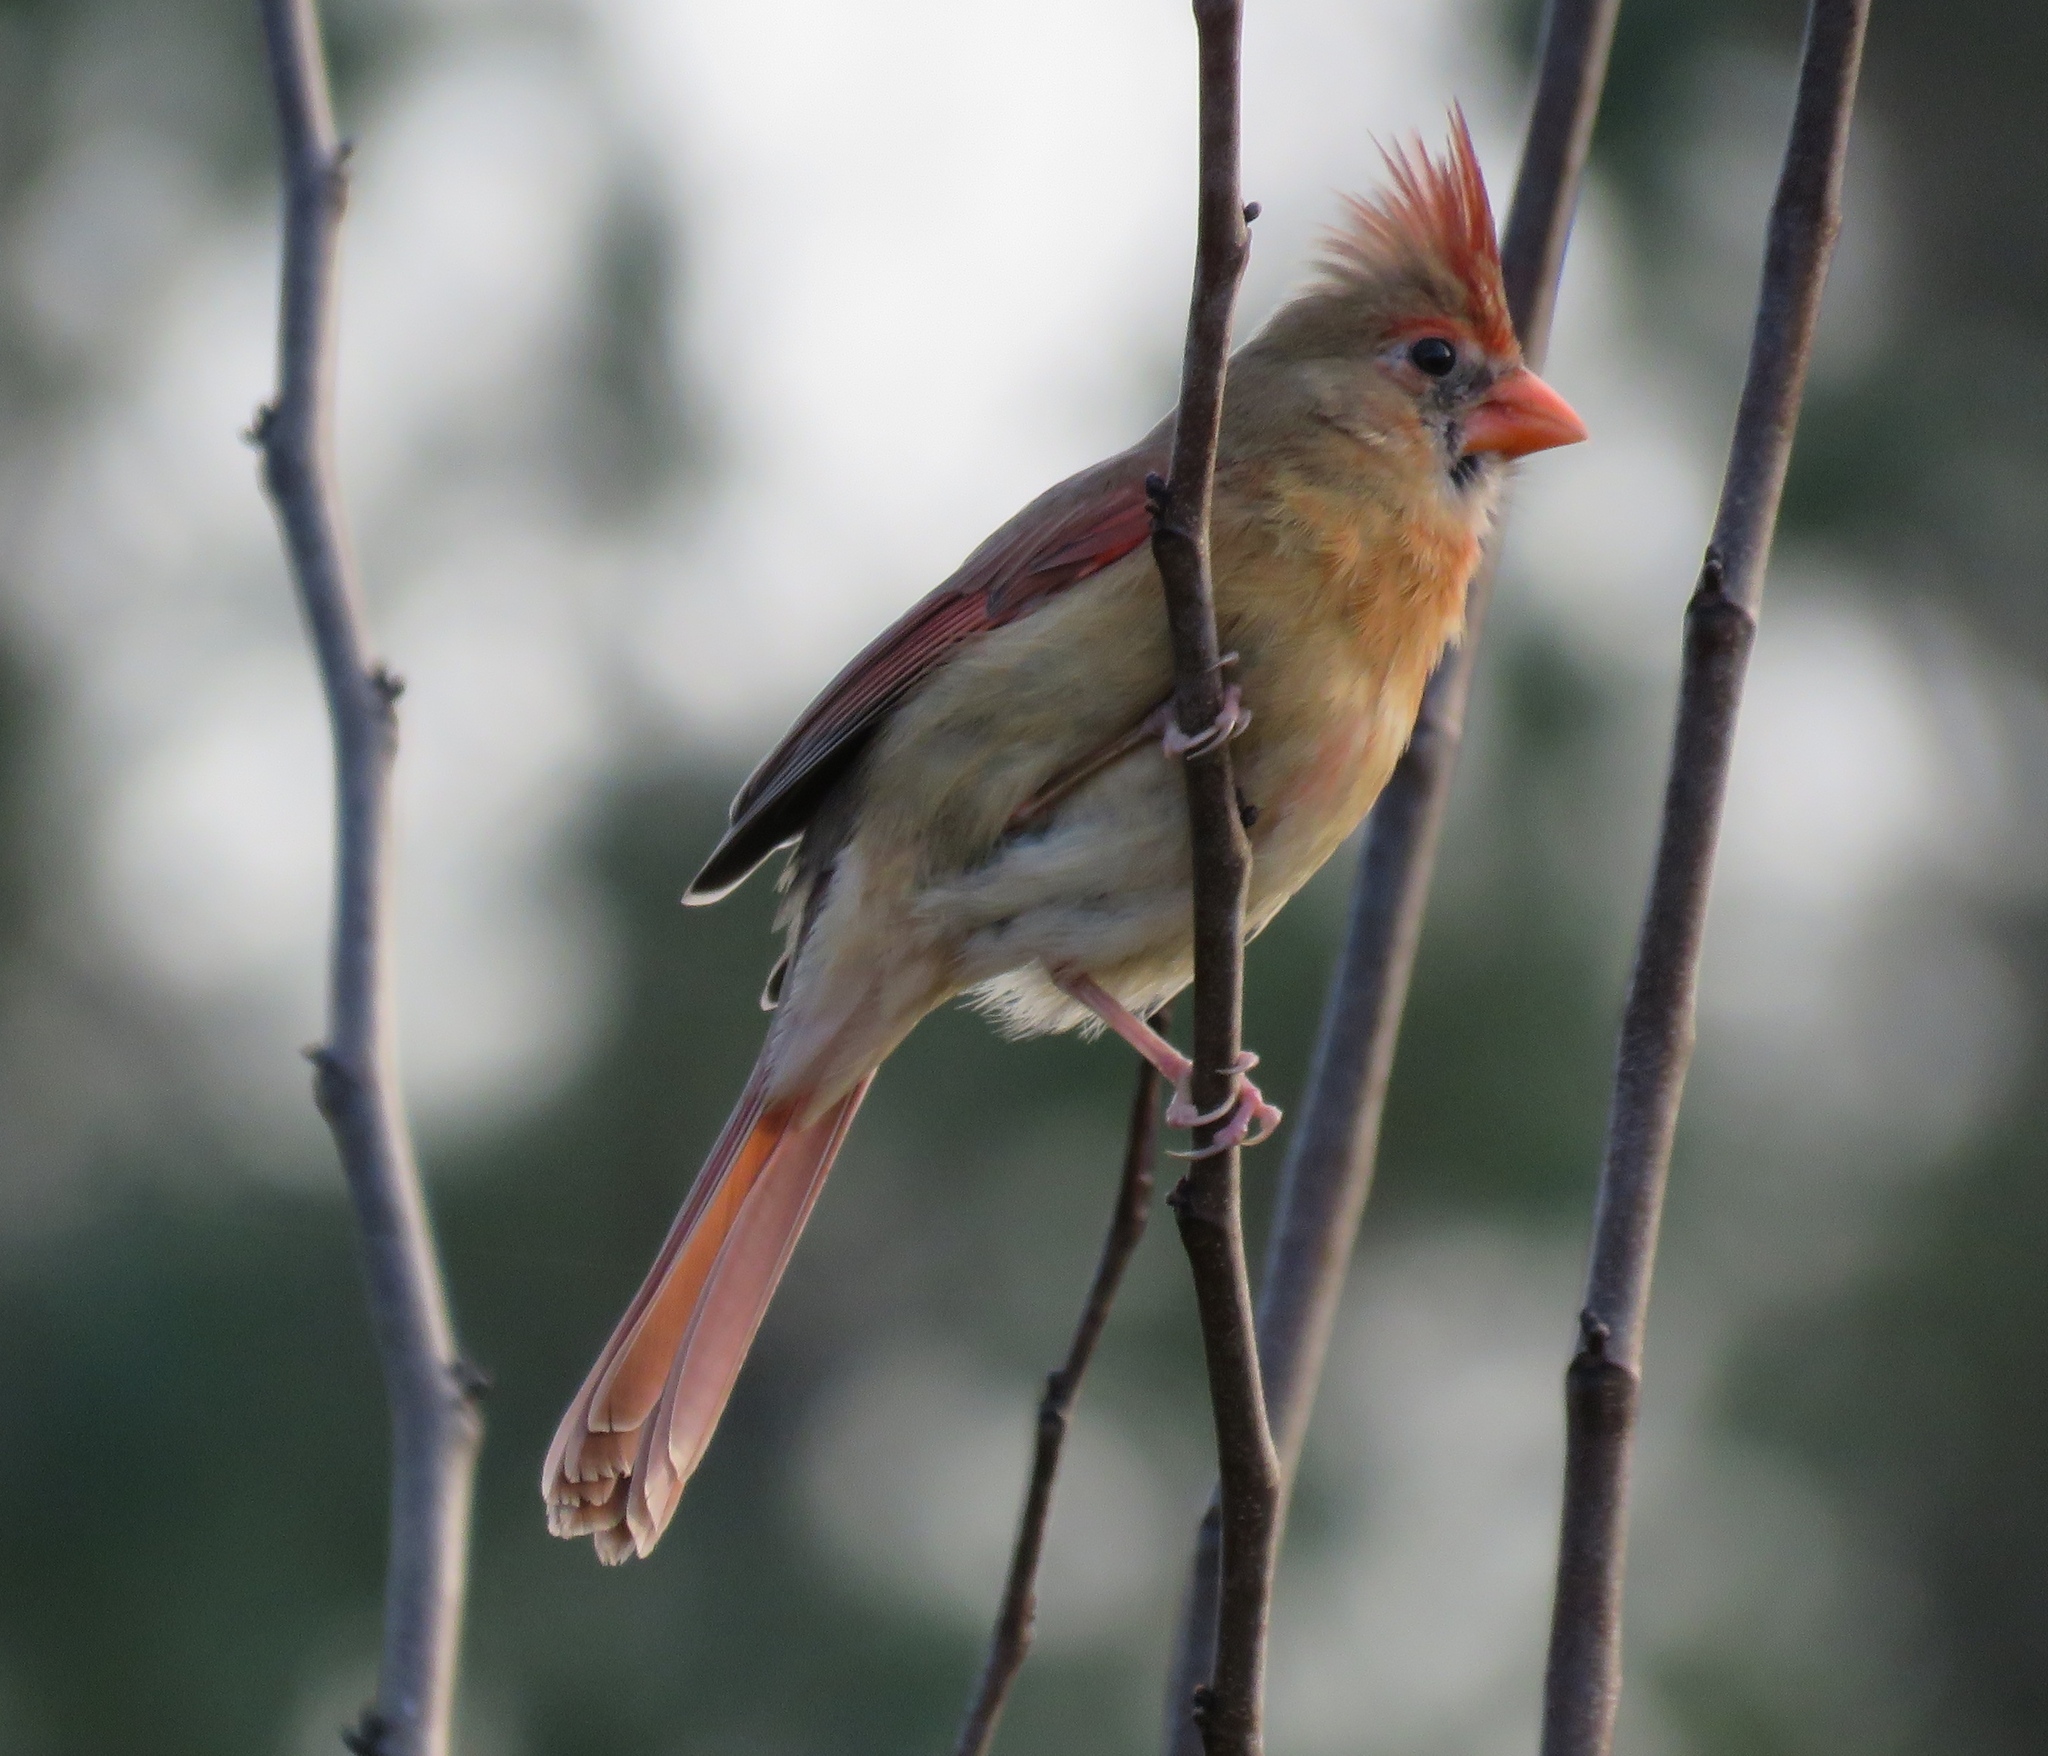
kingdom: Animalia
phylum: Chordata
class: Aves
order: Passeriformes
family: Cardinalidae
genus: Cardinalis
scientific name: Cardinalis cardinalis
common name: Northern cardinal
